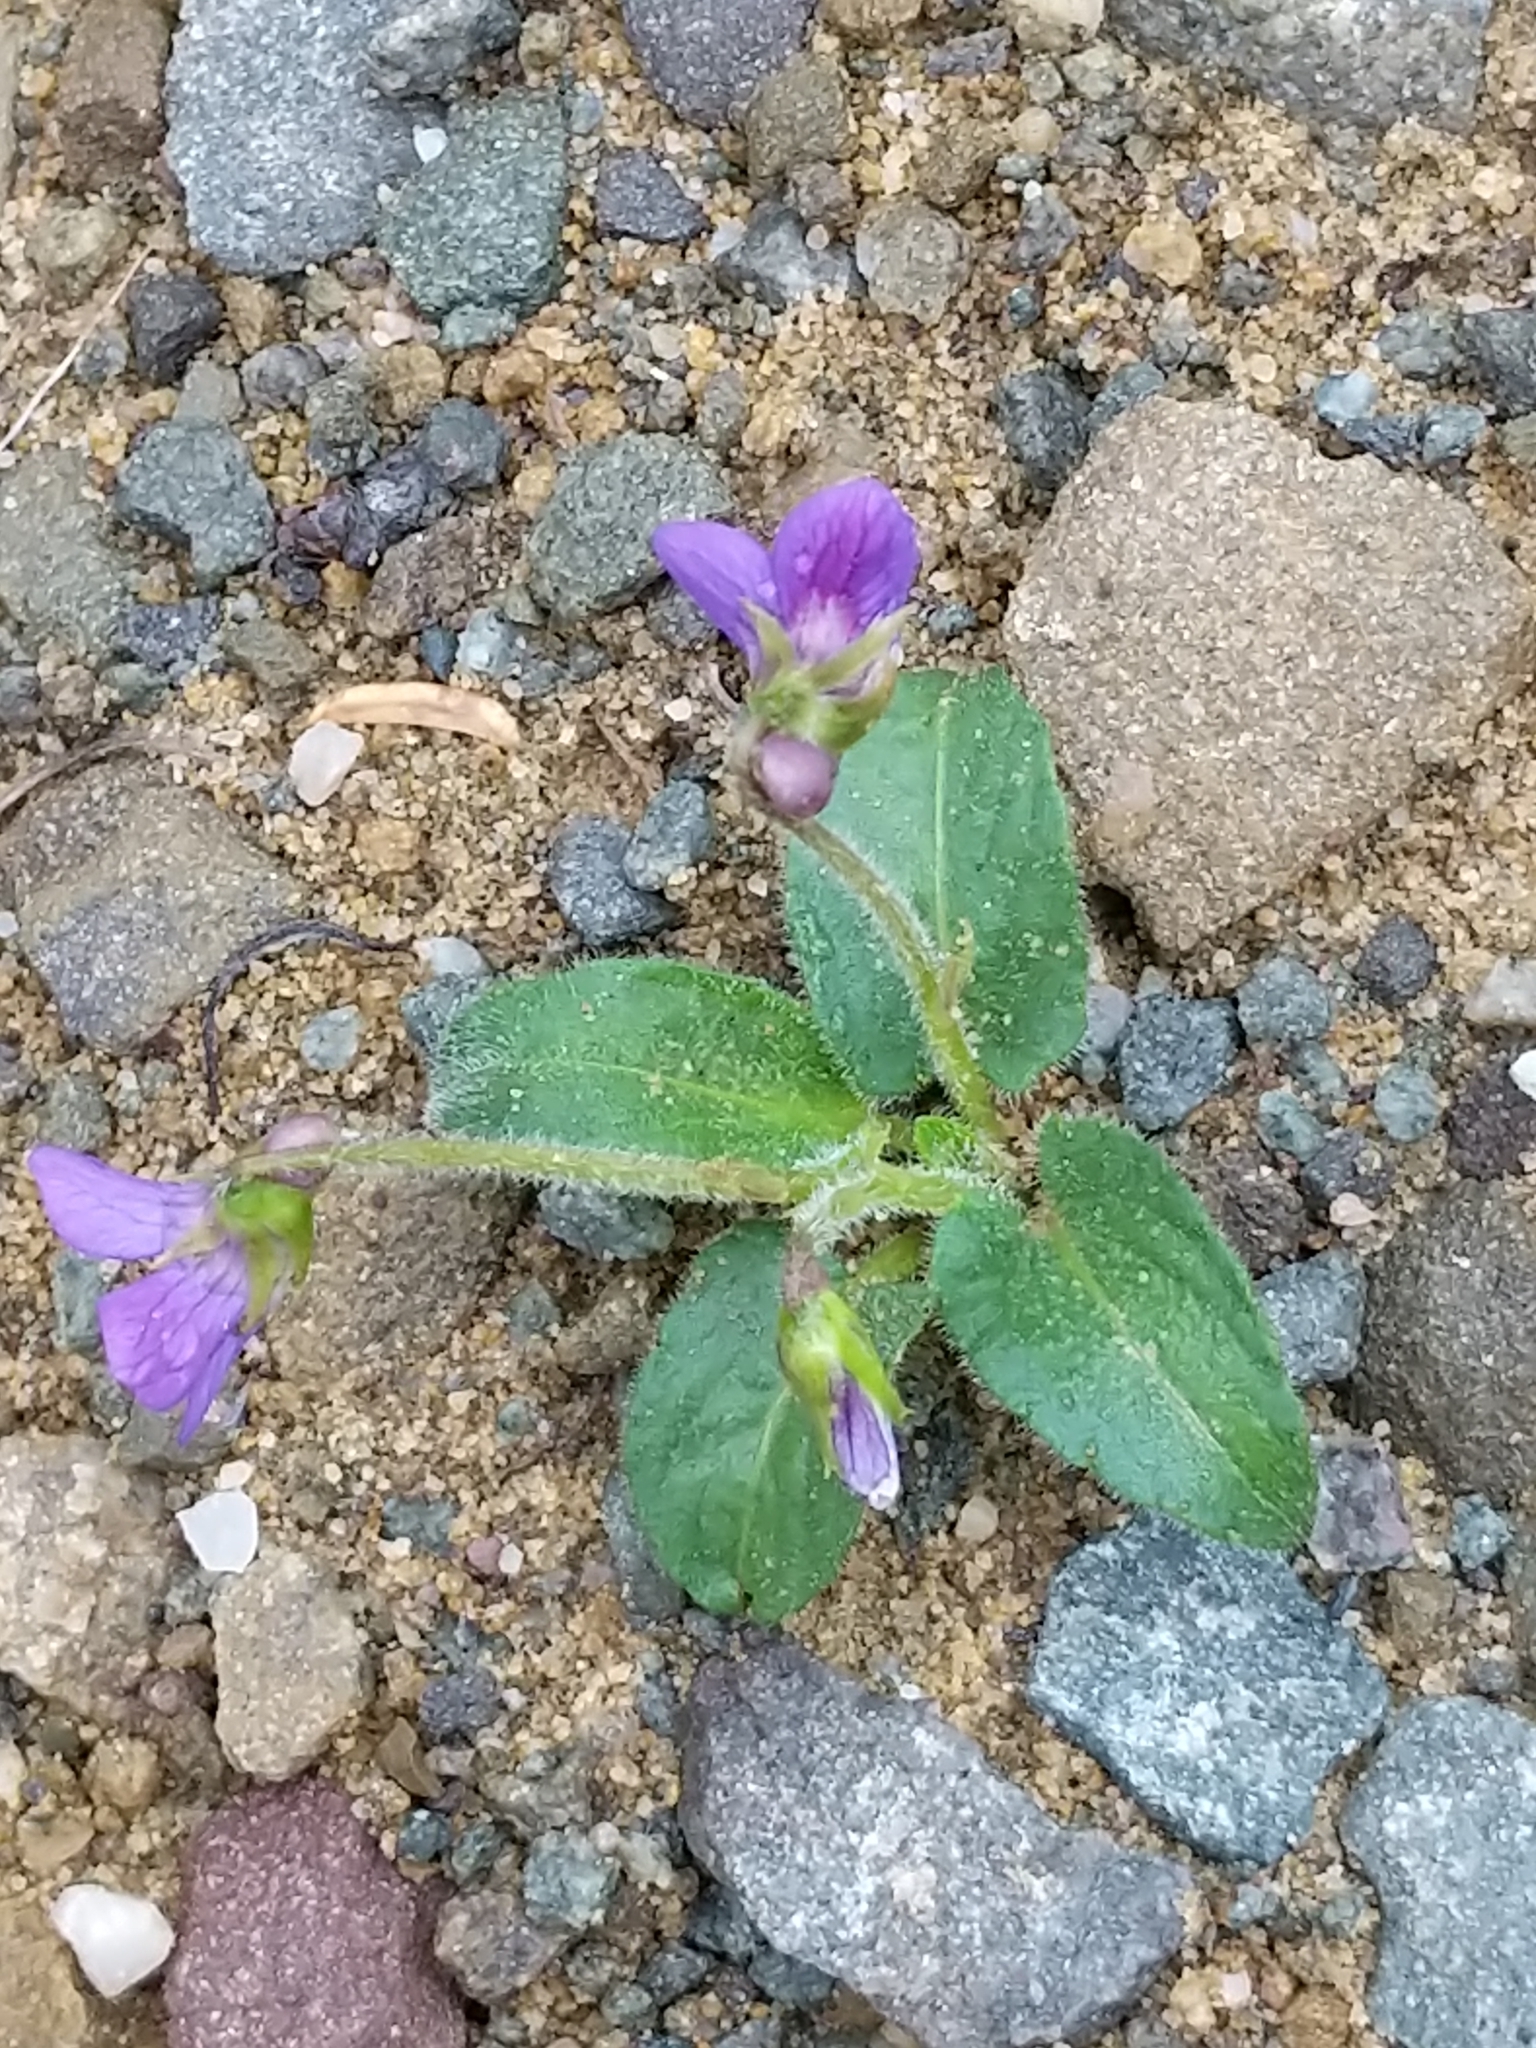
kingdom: Plantae
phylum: Tracheophyta
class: Magnoliopsida
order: Malpighiales
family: Violaceae
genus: Viola
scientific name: Viola fimbriatula
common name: Sand violet
